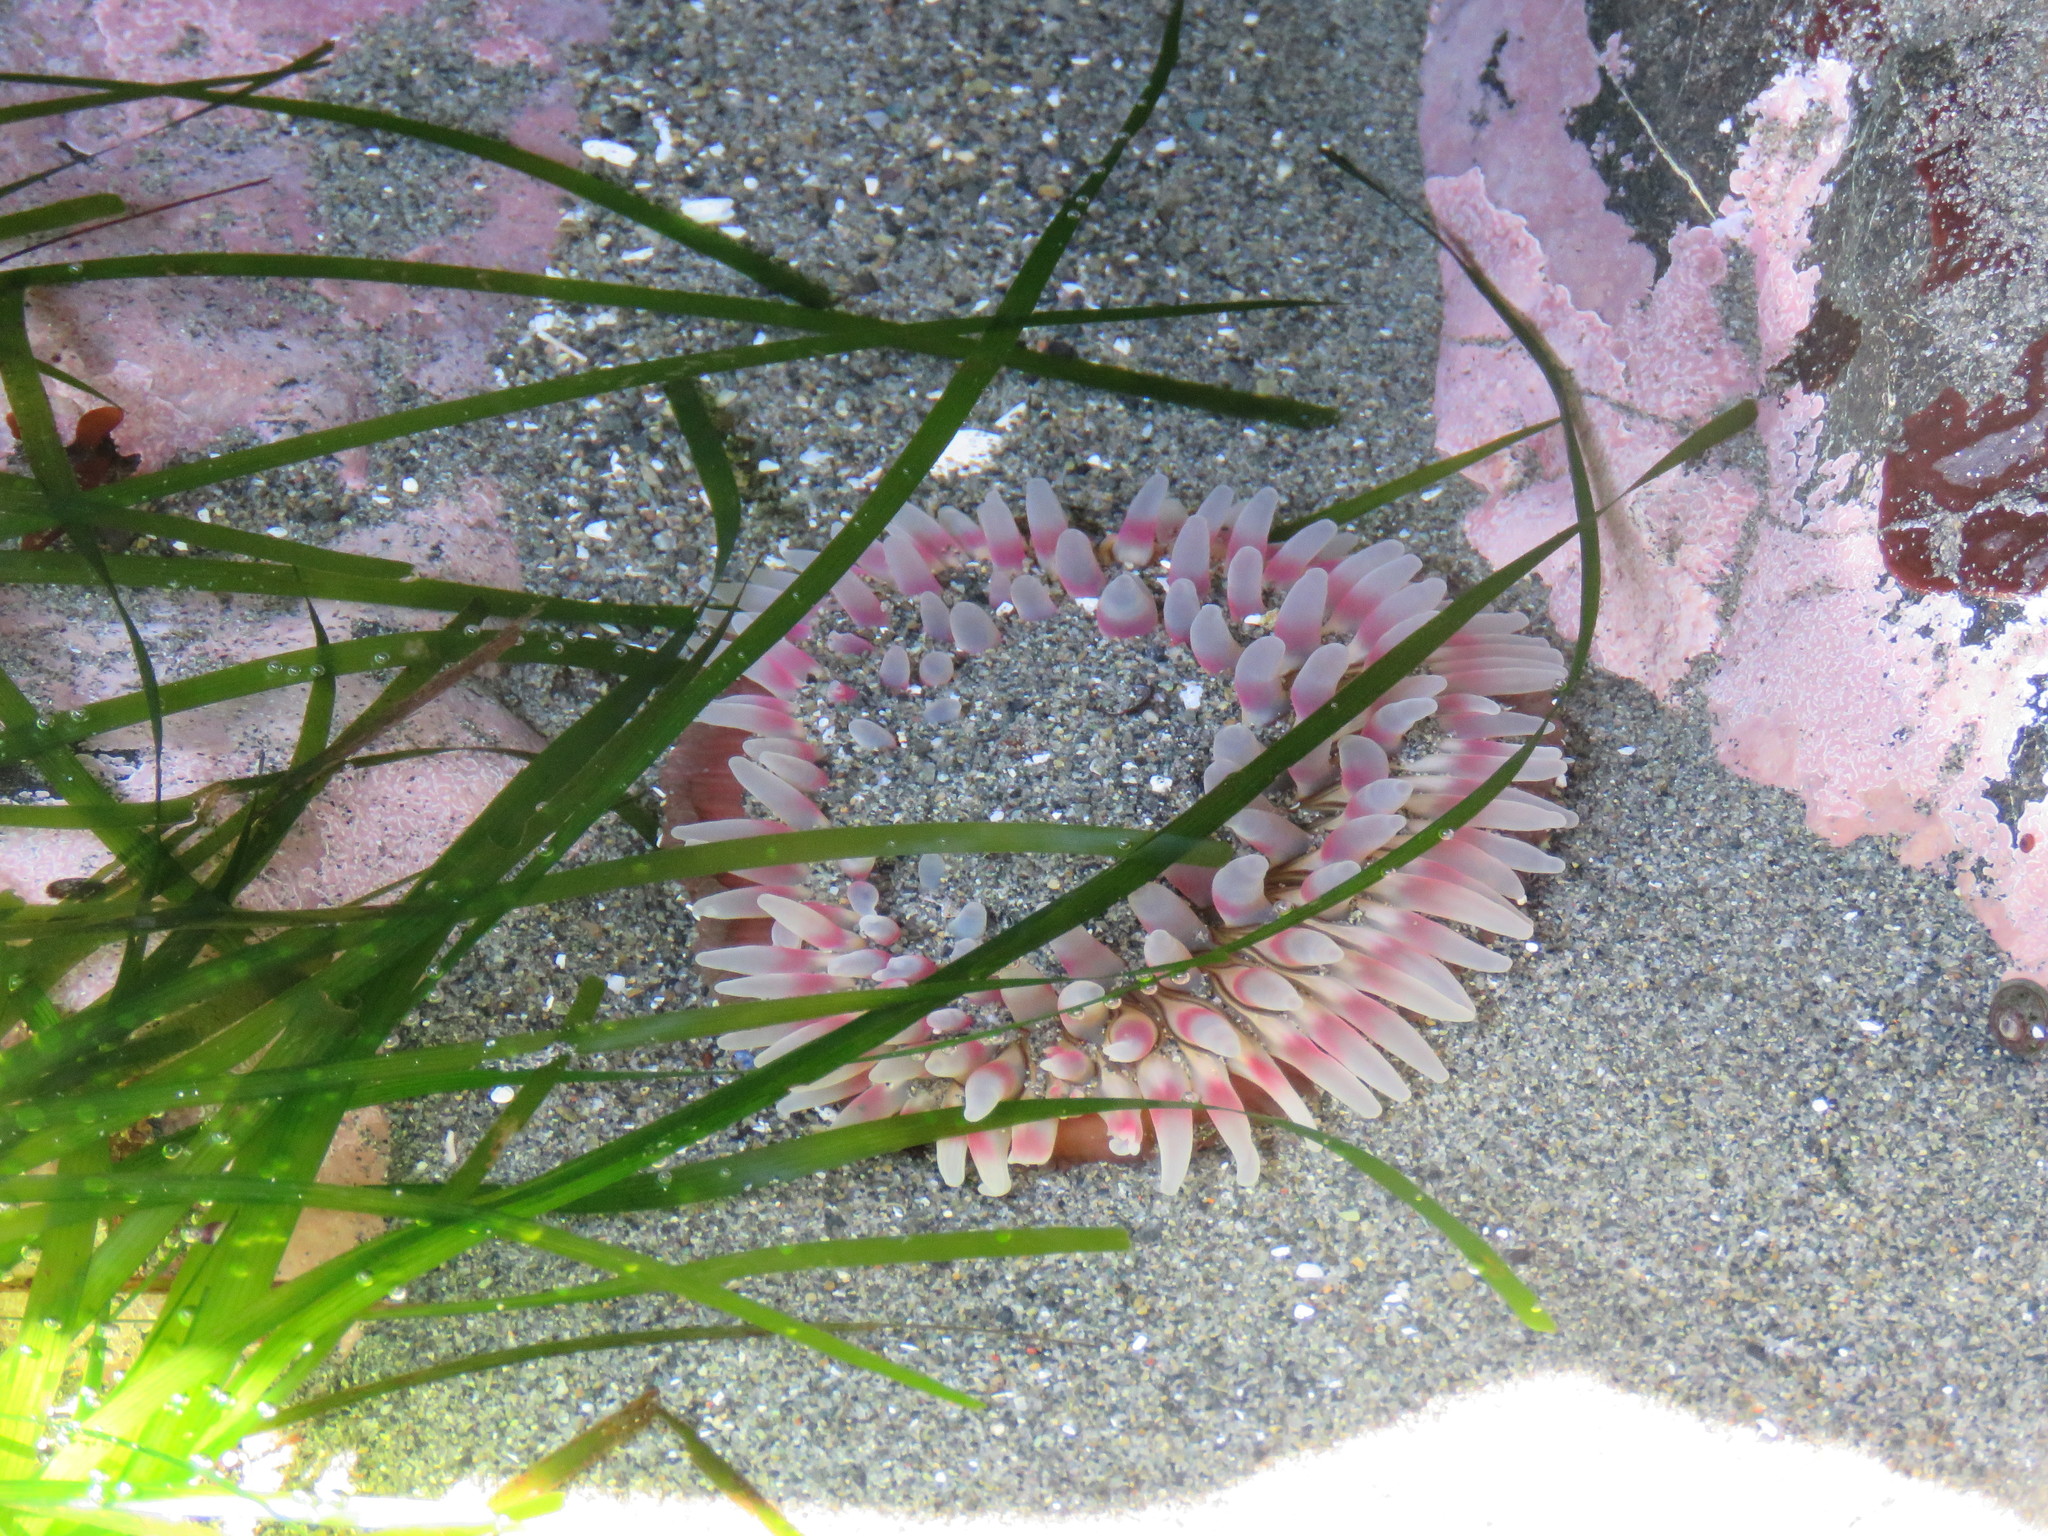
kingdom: Animalia
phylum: Cnidaria
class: Anthozoa
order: Actiniaria
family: Actiniidae
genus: Urticina
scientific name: Urticina clandestina
